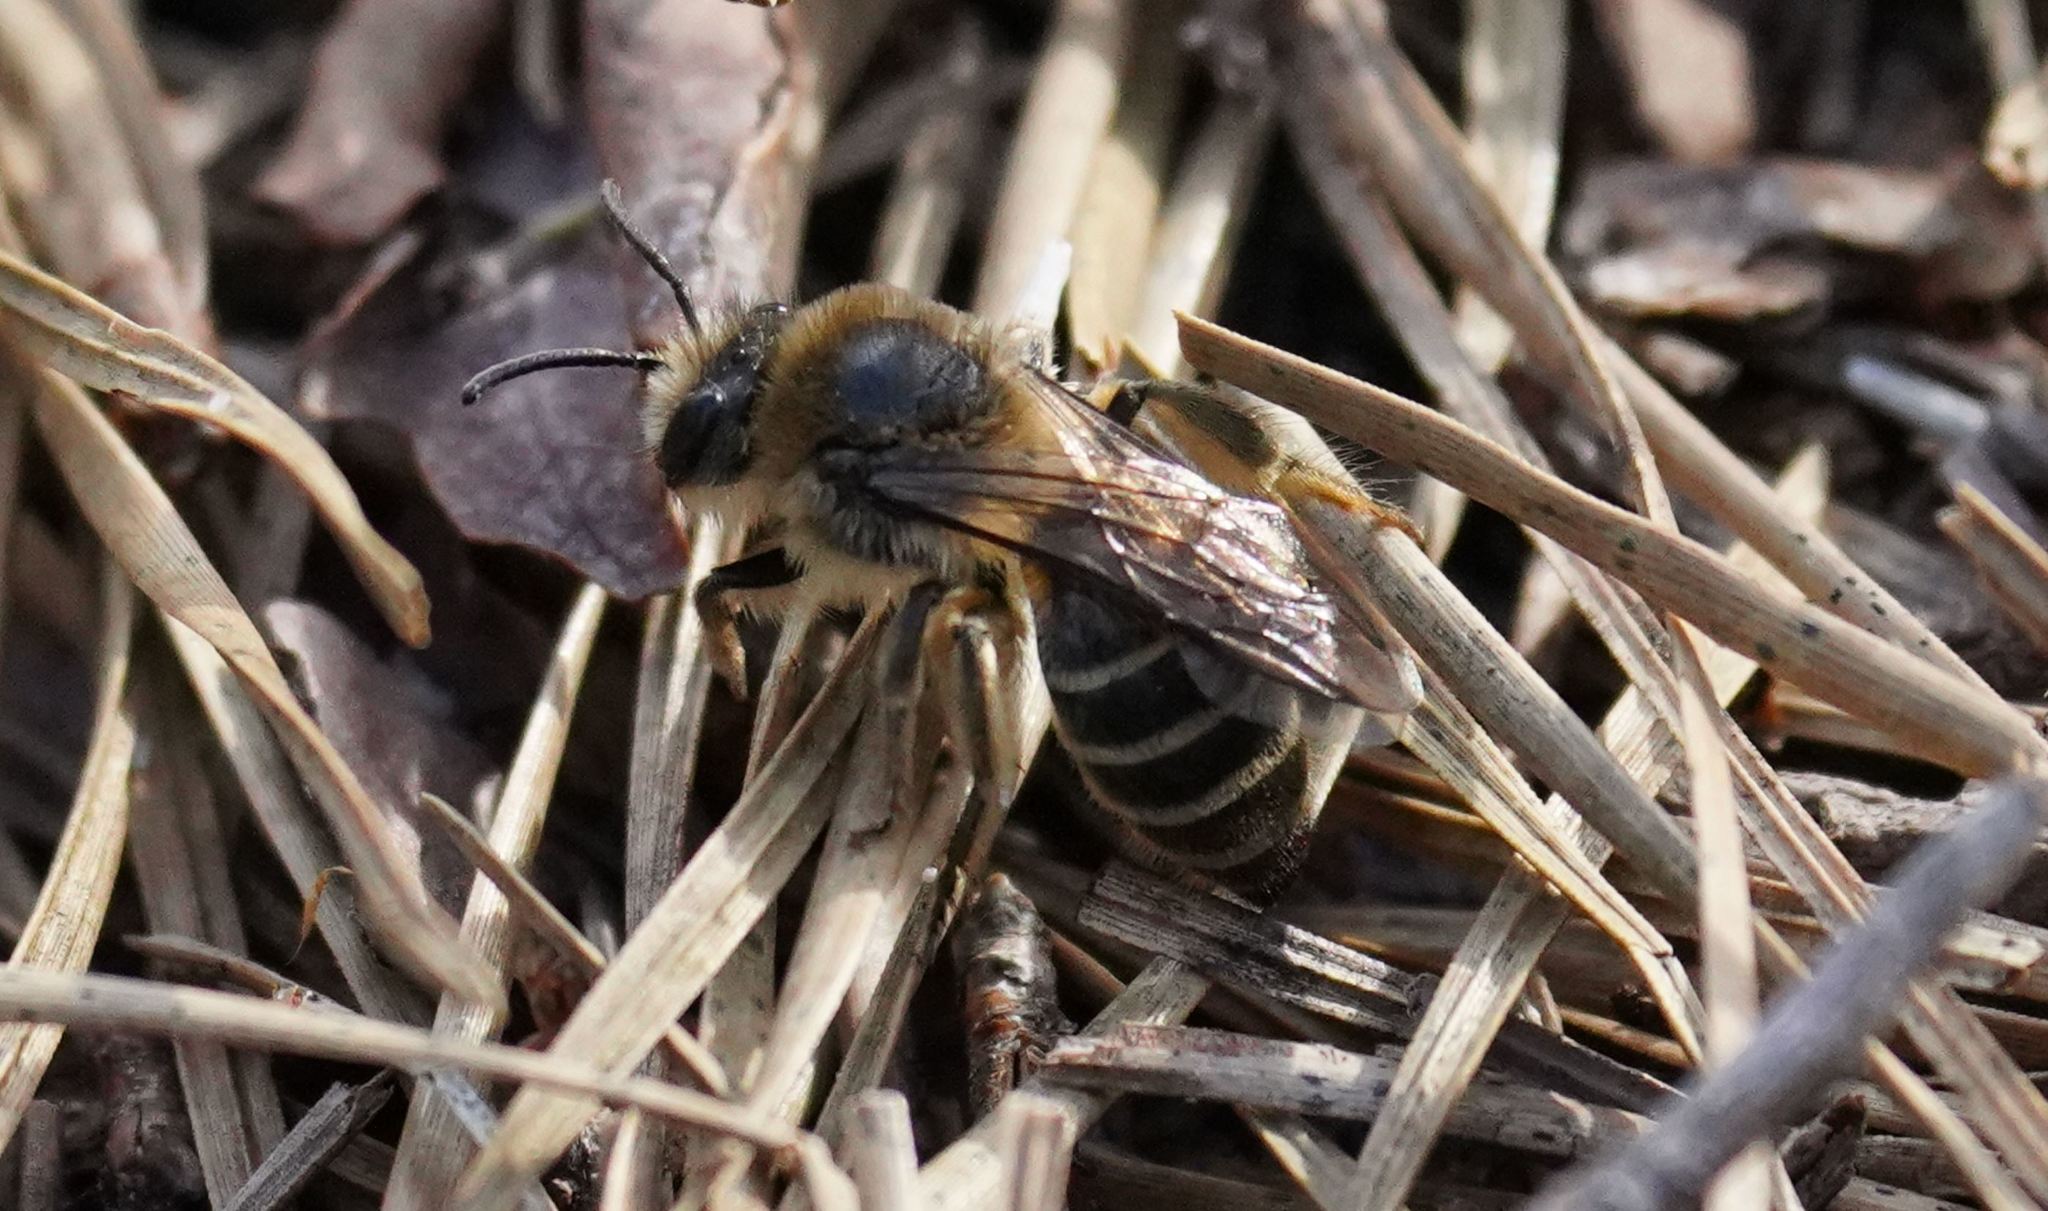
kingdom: Animalia
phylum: Arthropoda
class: Insecta
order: Hymenoptera
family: Colletidae
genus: Colletes
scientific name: Colletes inaequalis
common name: Unequal cellophane bee
